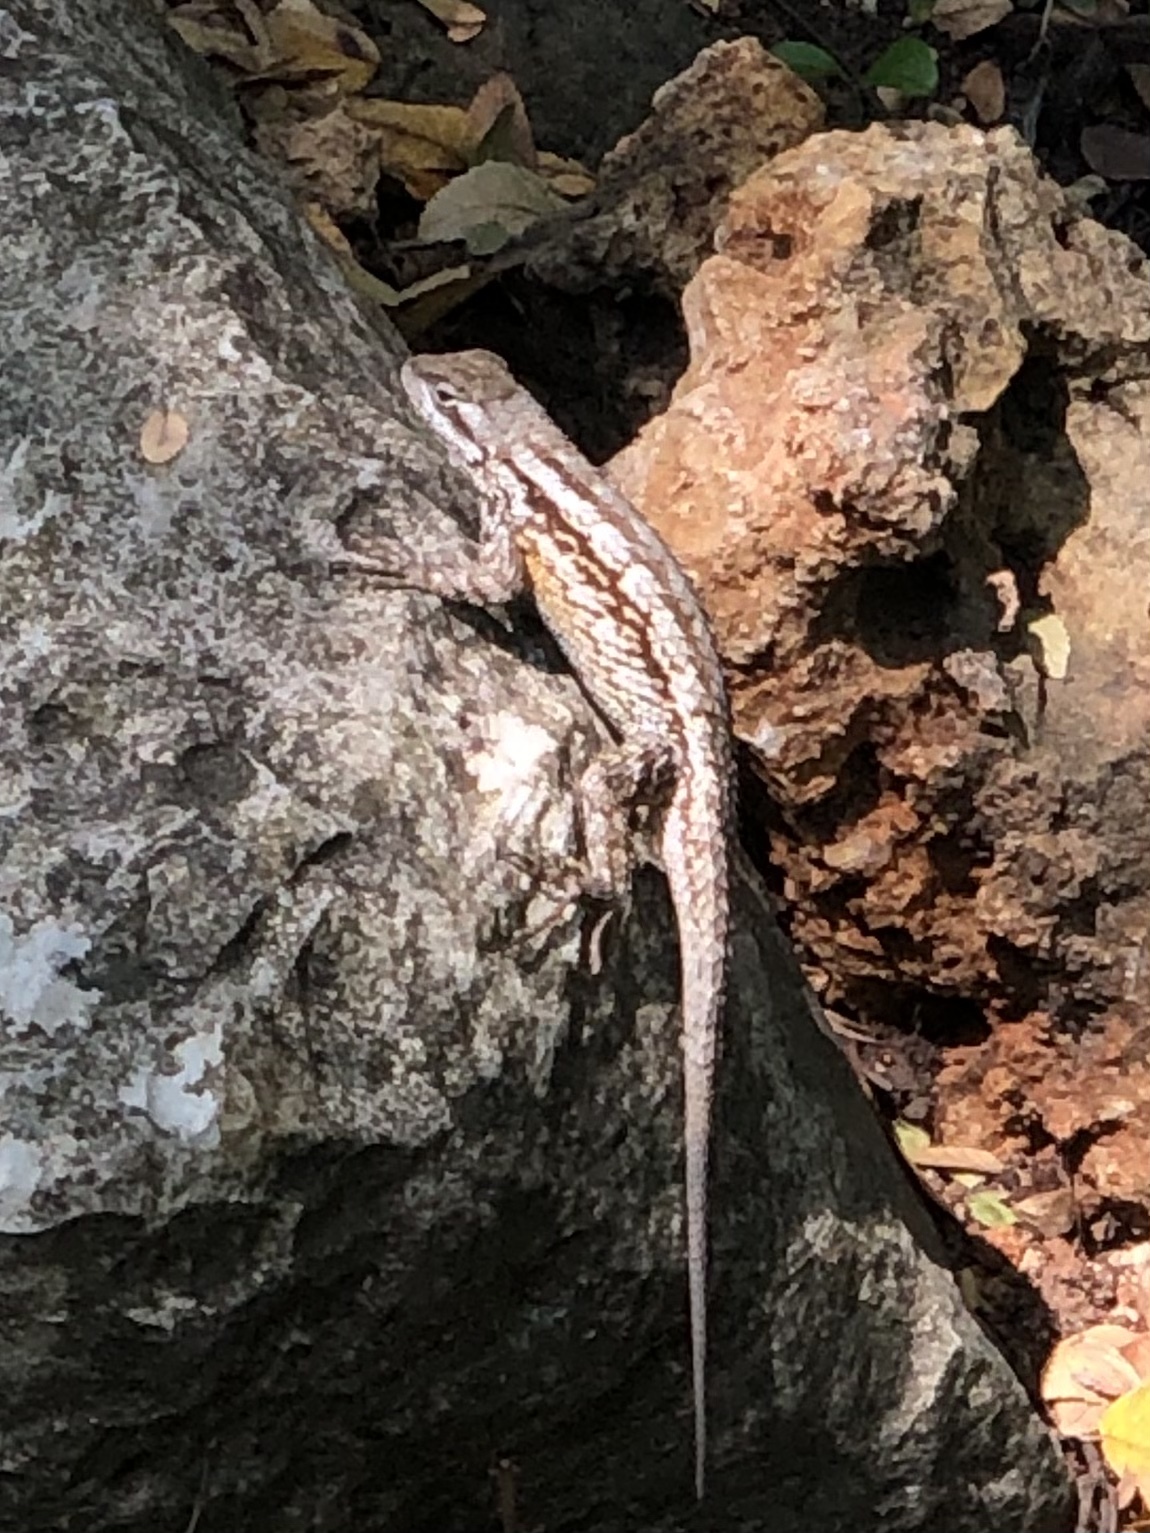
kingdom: Animalia
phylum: Chordata
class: Squamata
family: Phrynosomatidae
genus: Sceloporus
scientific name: Sceloporus olivaceus
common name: Texas spiny lizard
